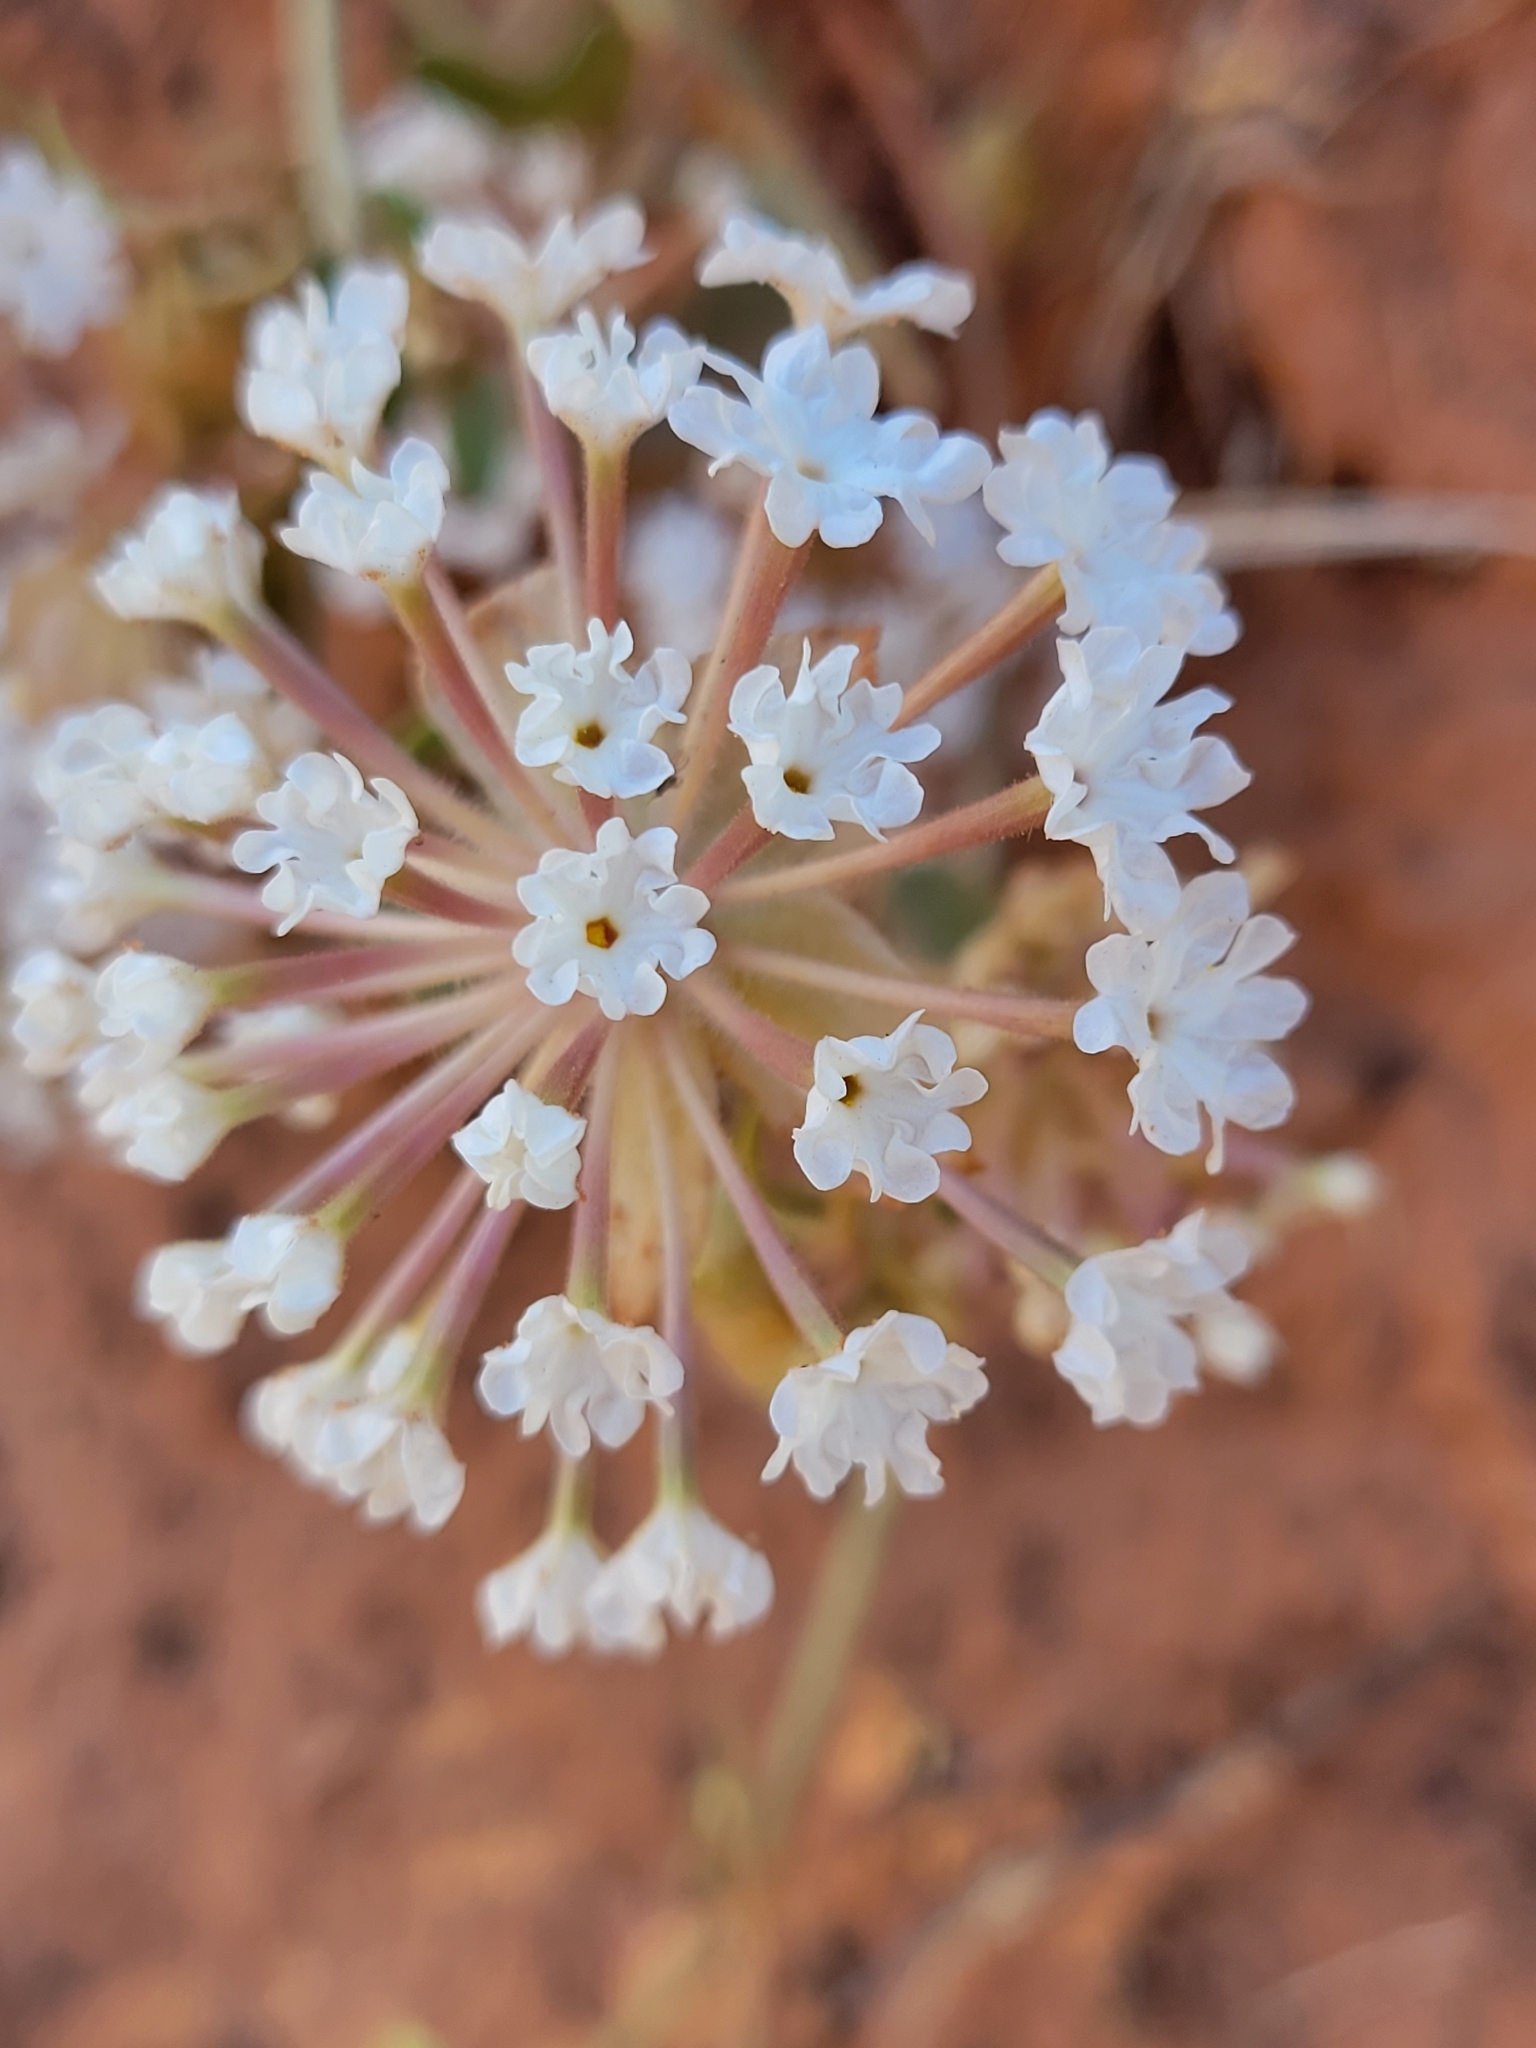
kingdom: Plantae
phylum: Tracheophyta
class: Magnoliopsida
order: Caryophyllales
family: Nyctaginaceae
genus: Abronia
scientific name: Abronia elliptica
